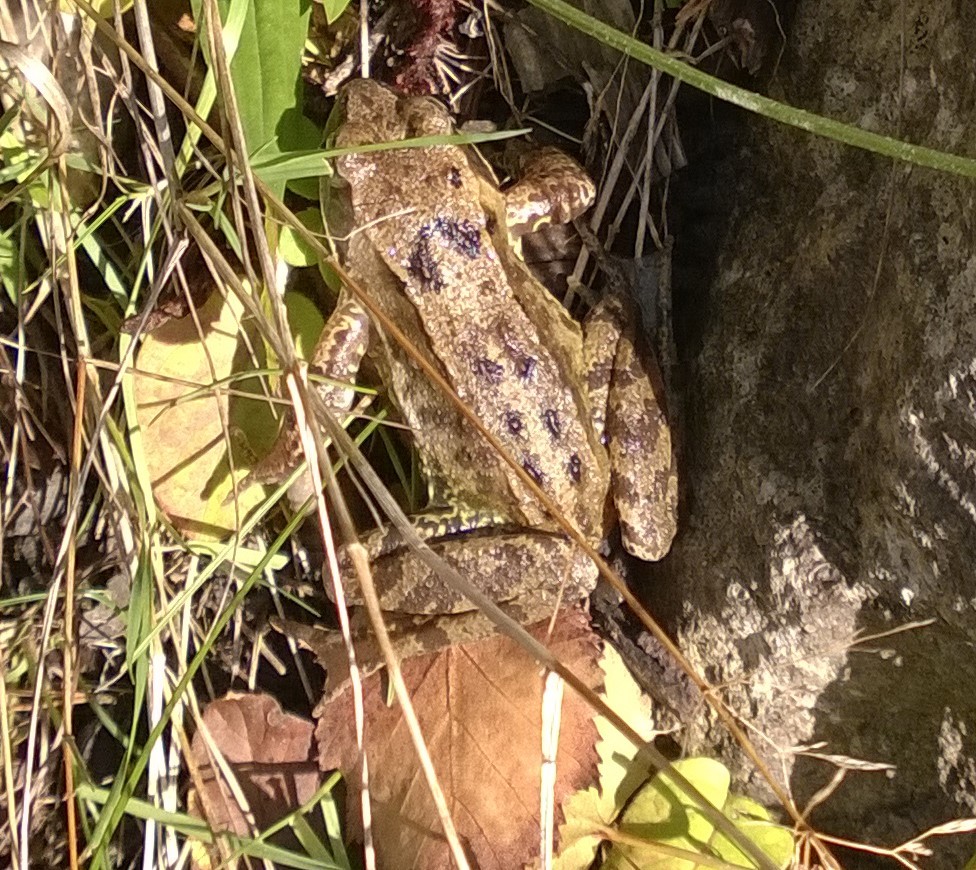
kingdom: Animalia
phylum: Chordata
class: Amphibia
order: Anura
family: Ranidae
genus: Rana
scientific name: Rana temporaria
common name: Common frog
